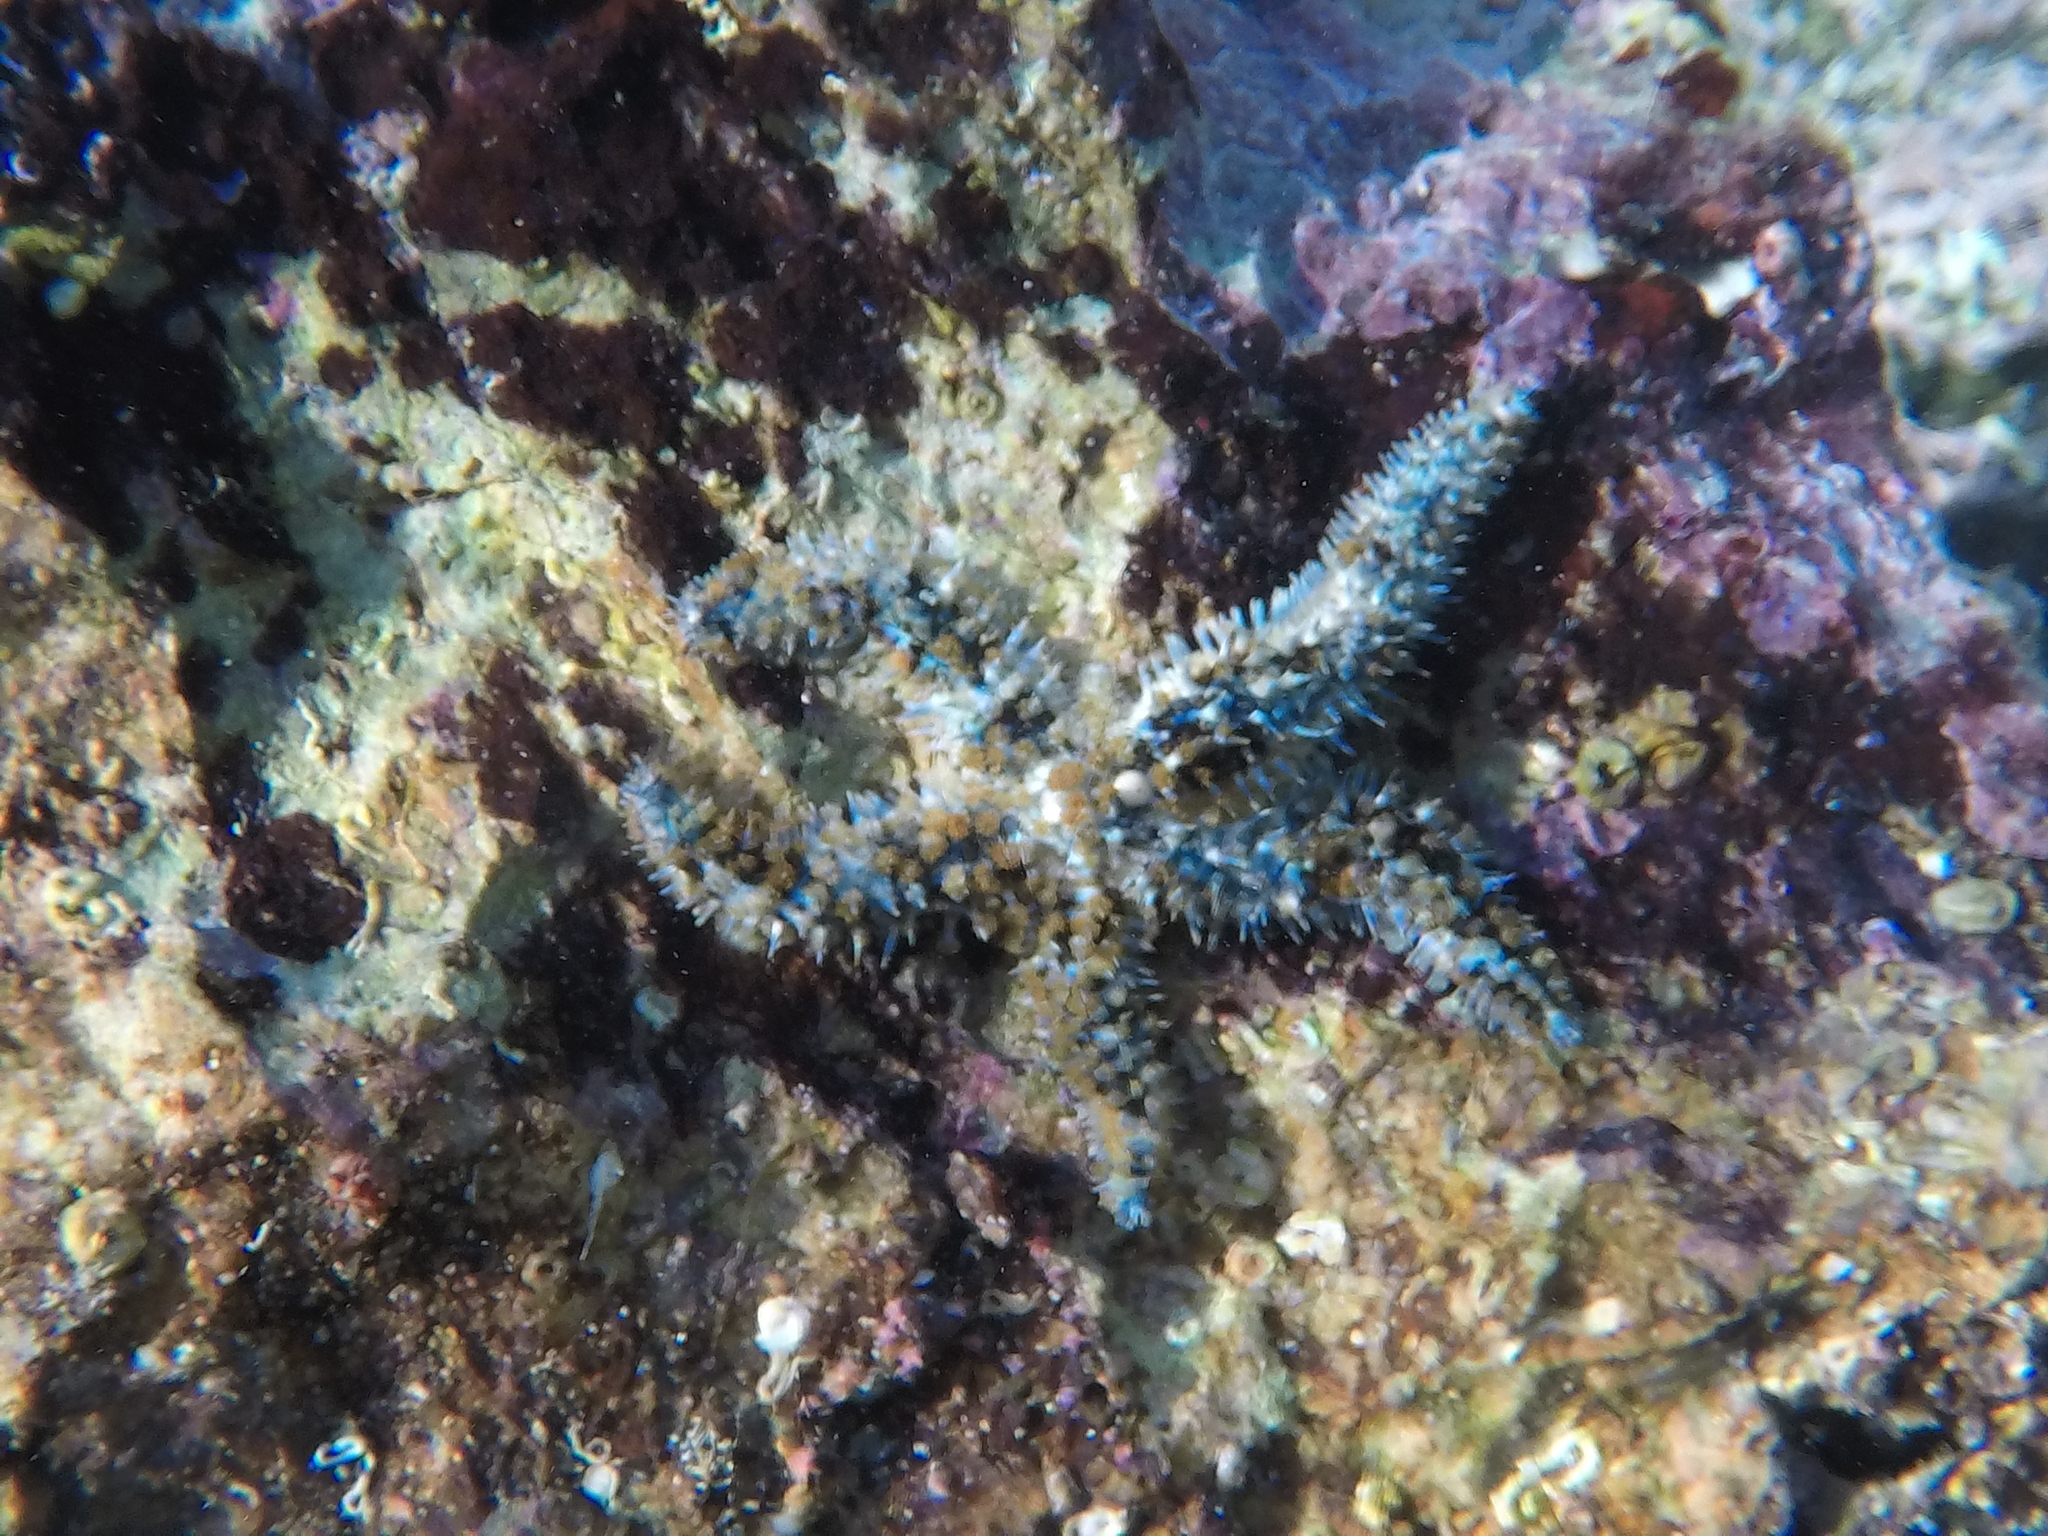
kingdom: Animalia
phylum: Echinodermata
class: Asteroidea
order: Forcipulatida
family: Asteriidae
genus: Coscinasterias
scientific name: Coscinasterias tenuispina
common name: Blue spiny starfish
